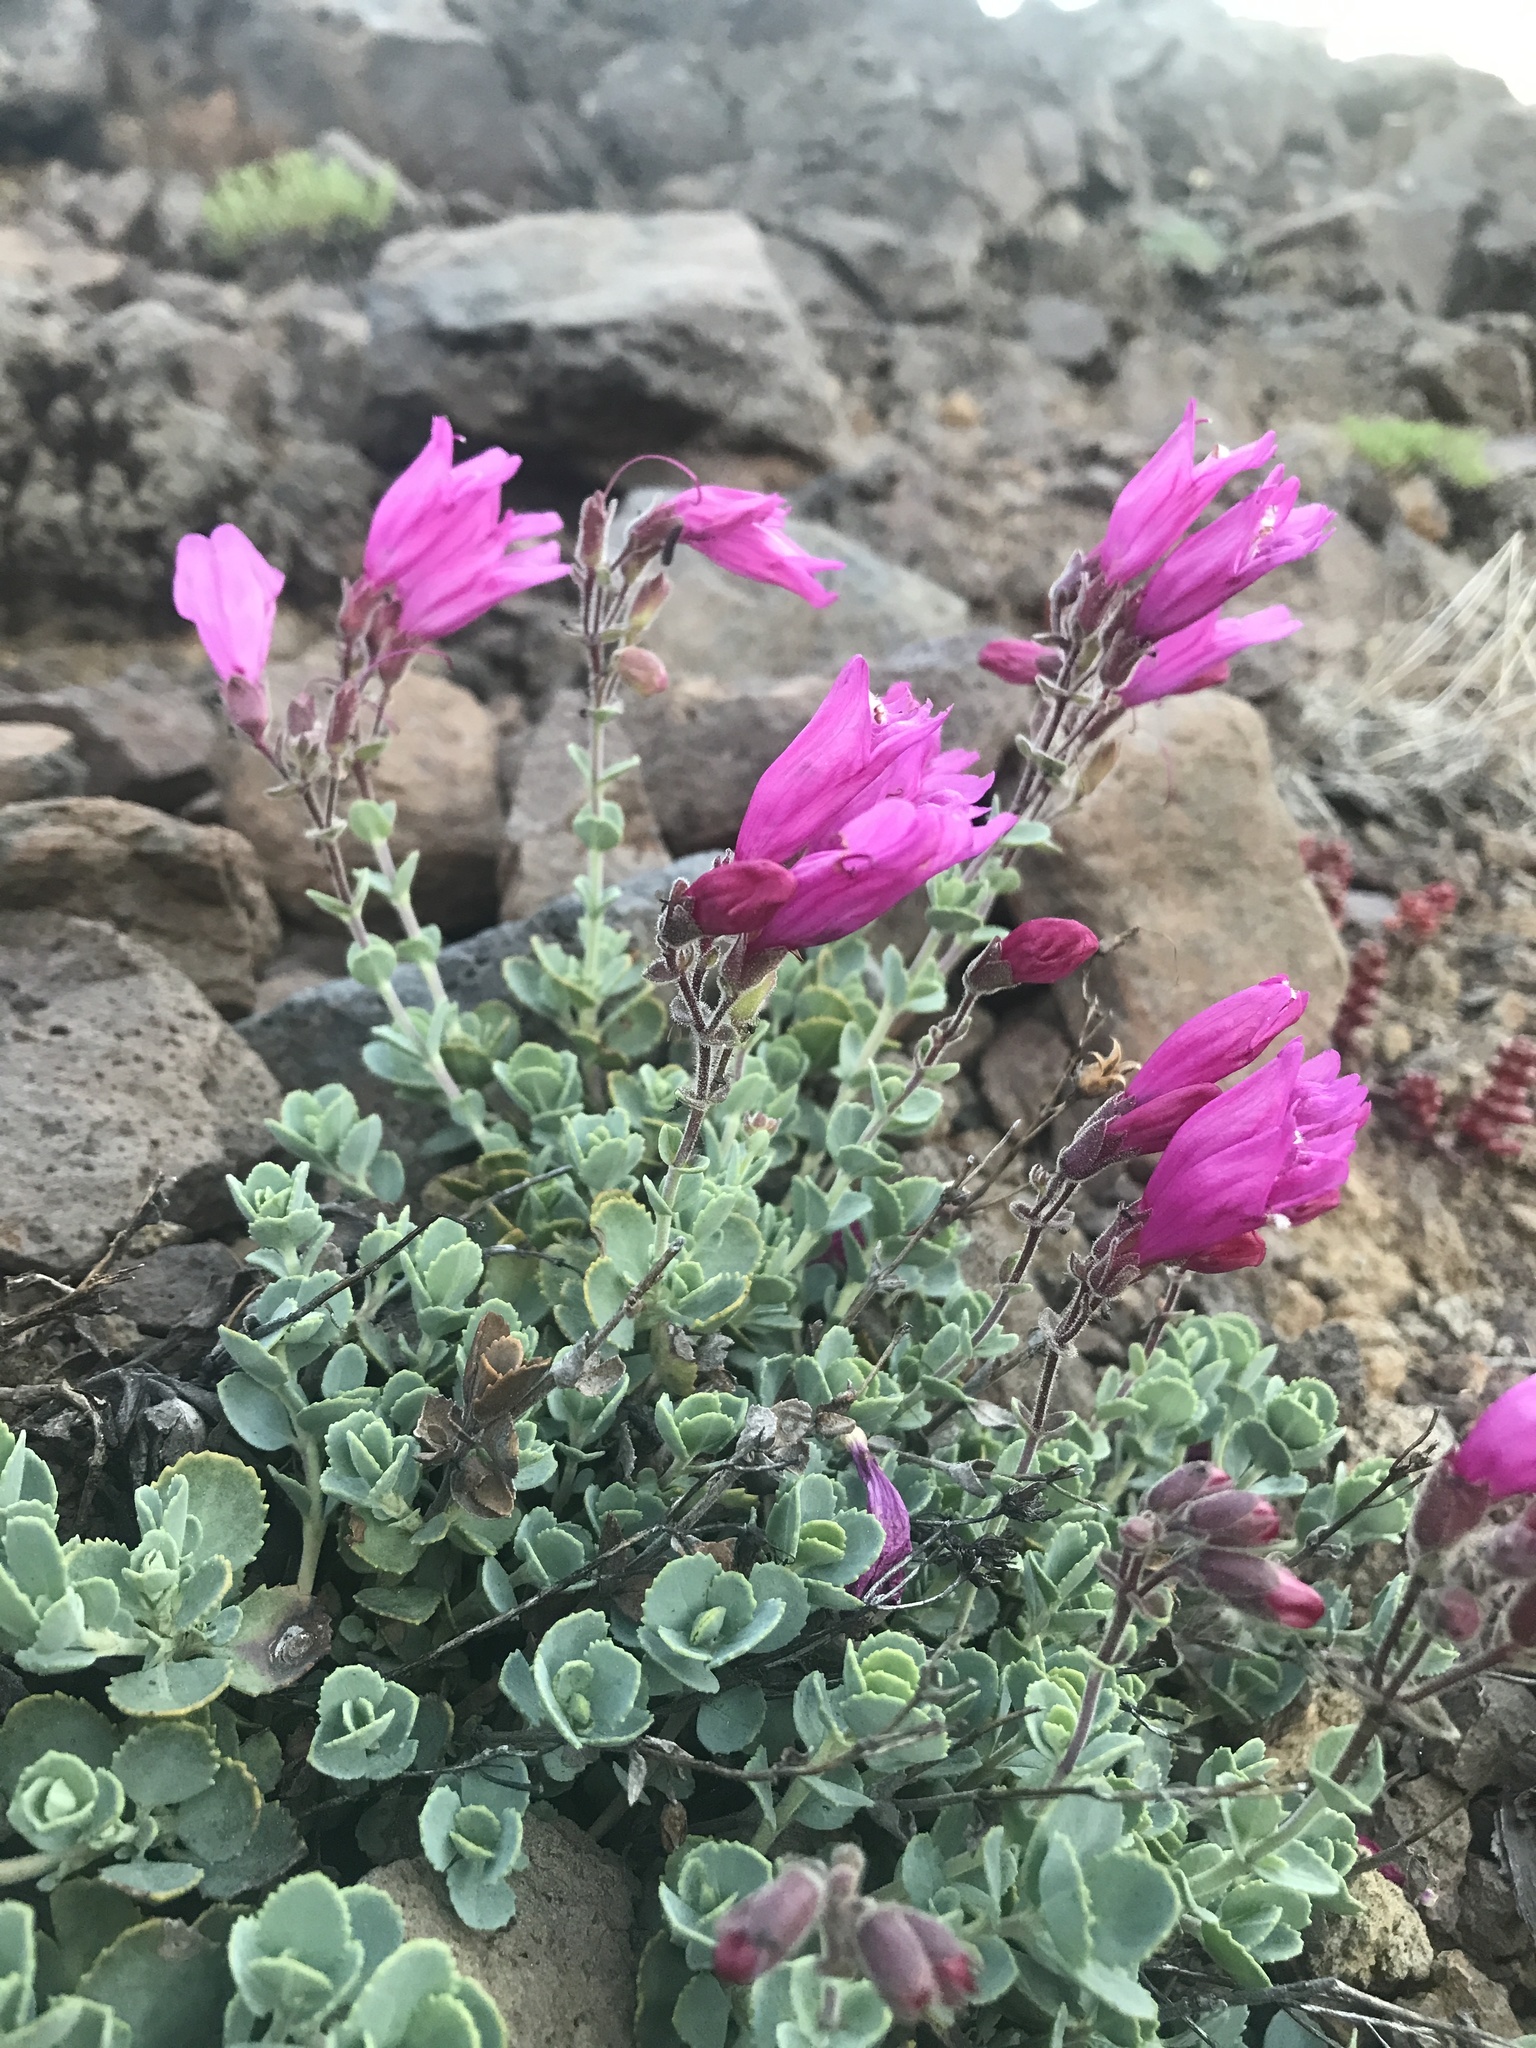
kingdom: Plantae
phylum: Tracheophyta
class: Magnoliopsida
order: Lamiales
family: Plantaginaceae
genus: Penstemon
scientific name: Penstemon rupicola
